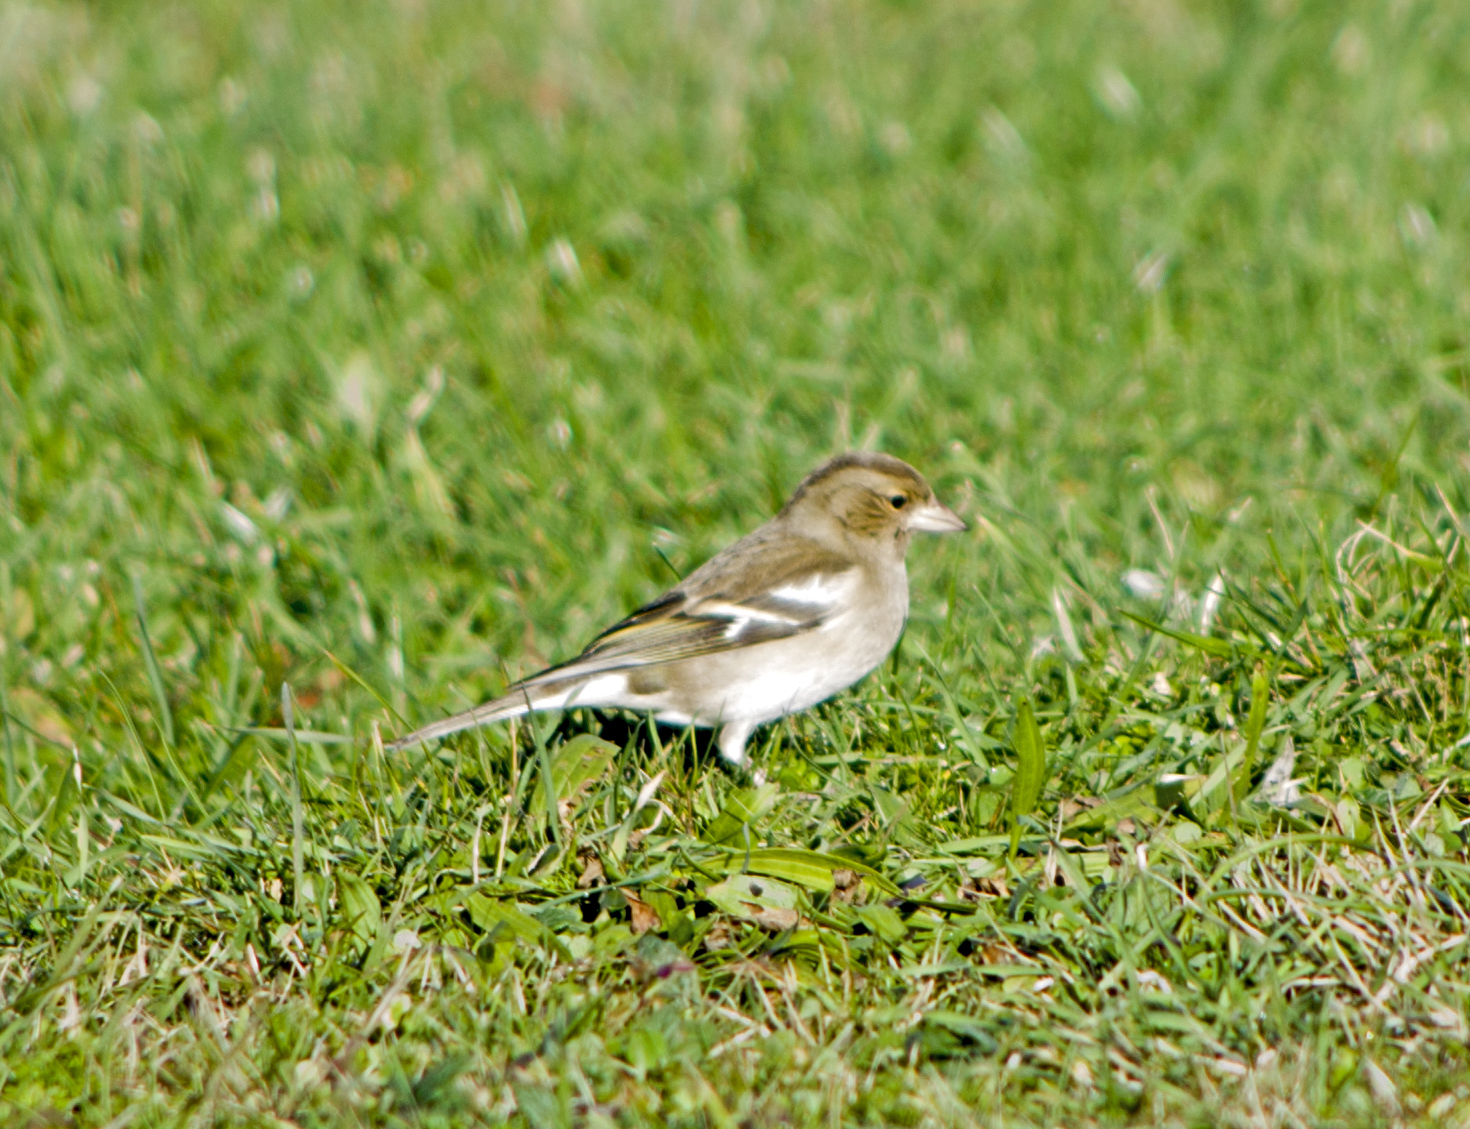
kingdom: Animalia
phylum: Chordata
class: Aves
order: Passeriformes
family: Fringillidae
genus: Fringilla
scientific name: Fringilla coelebs
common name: Common chaffinch
